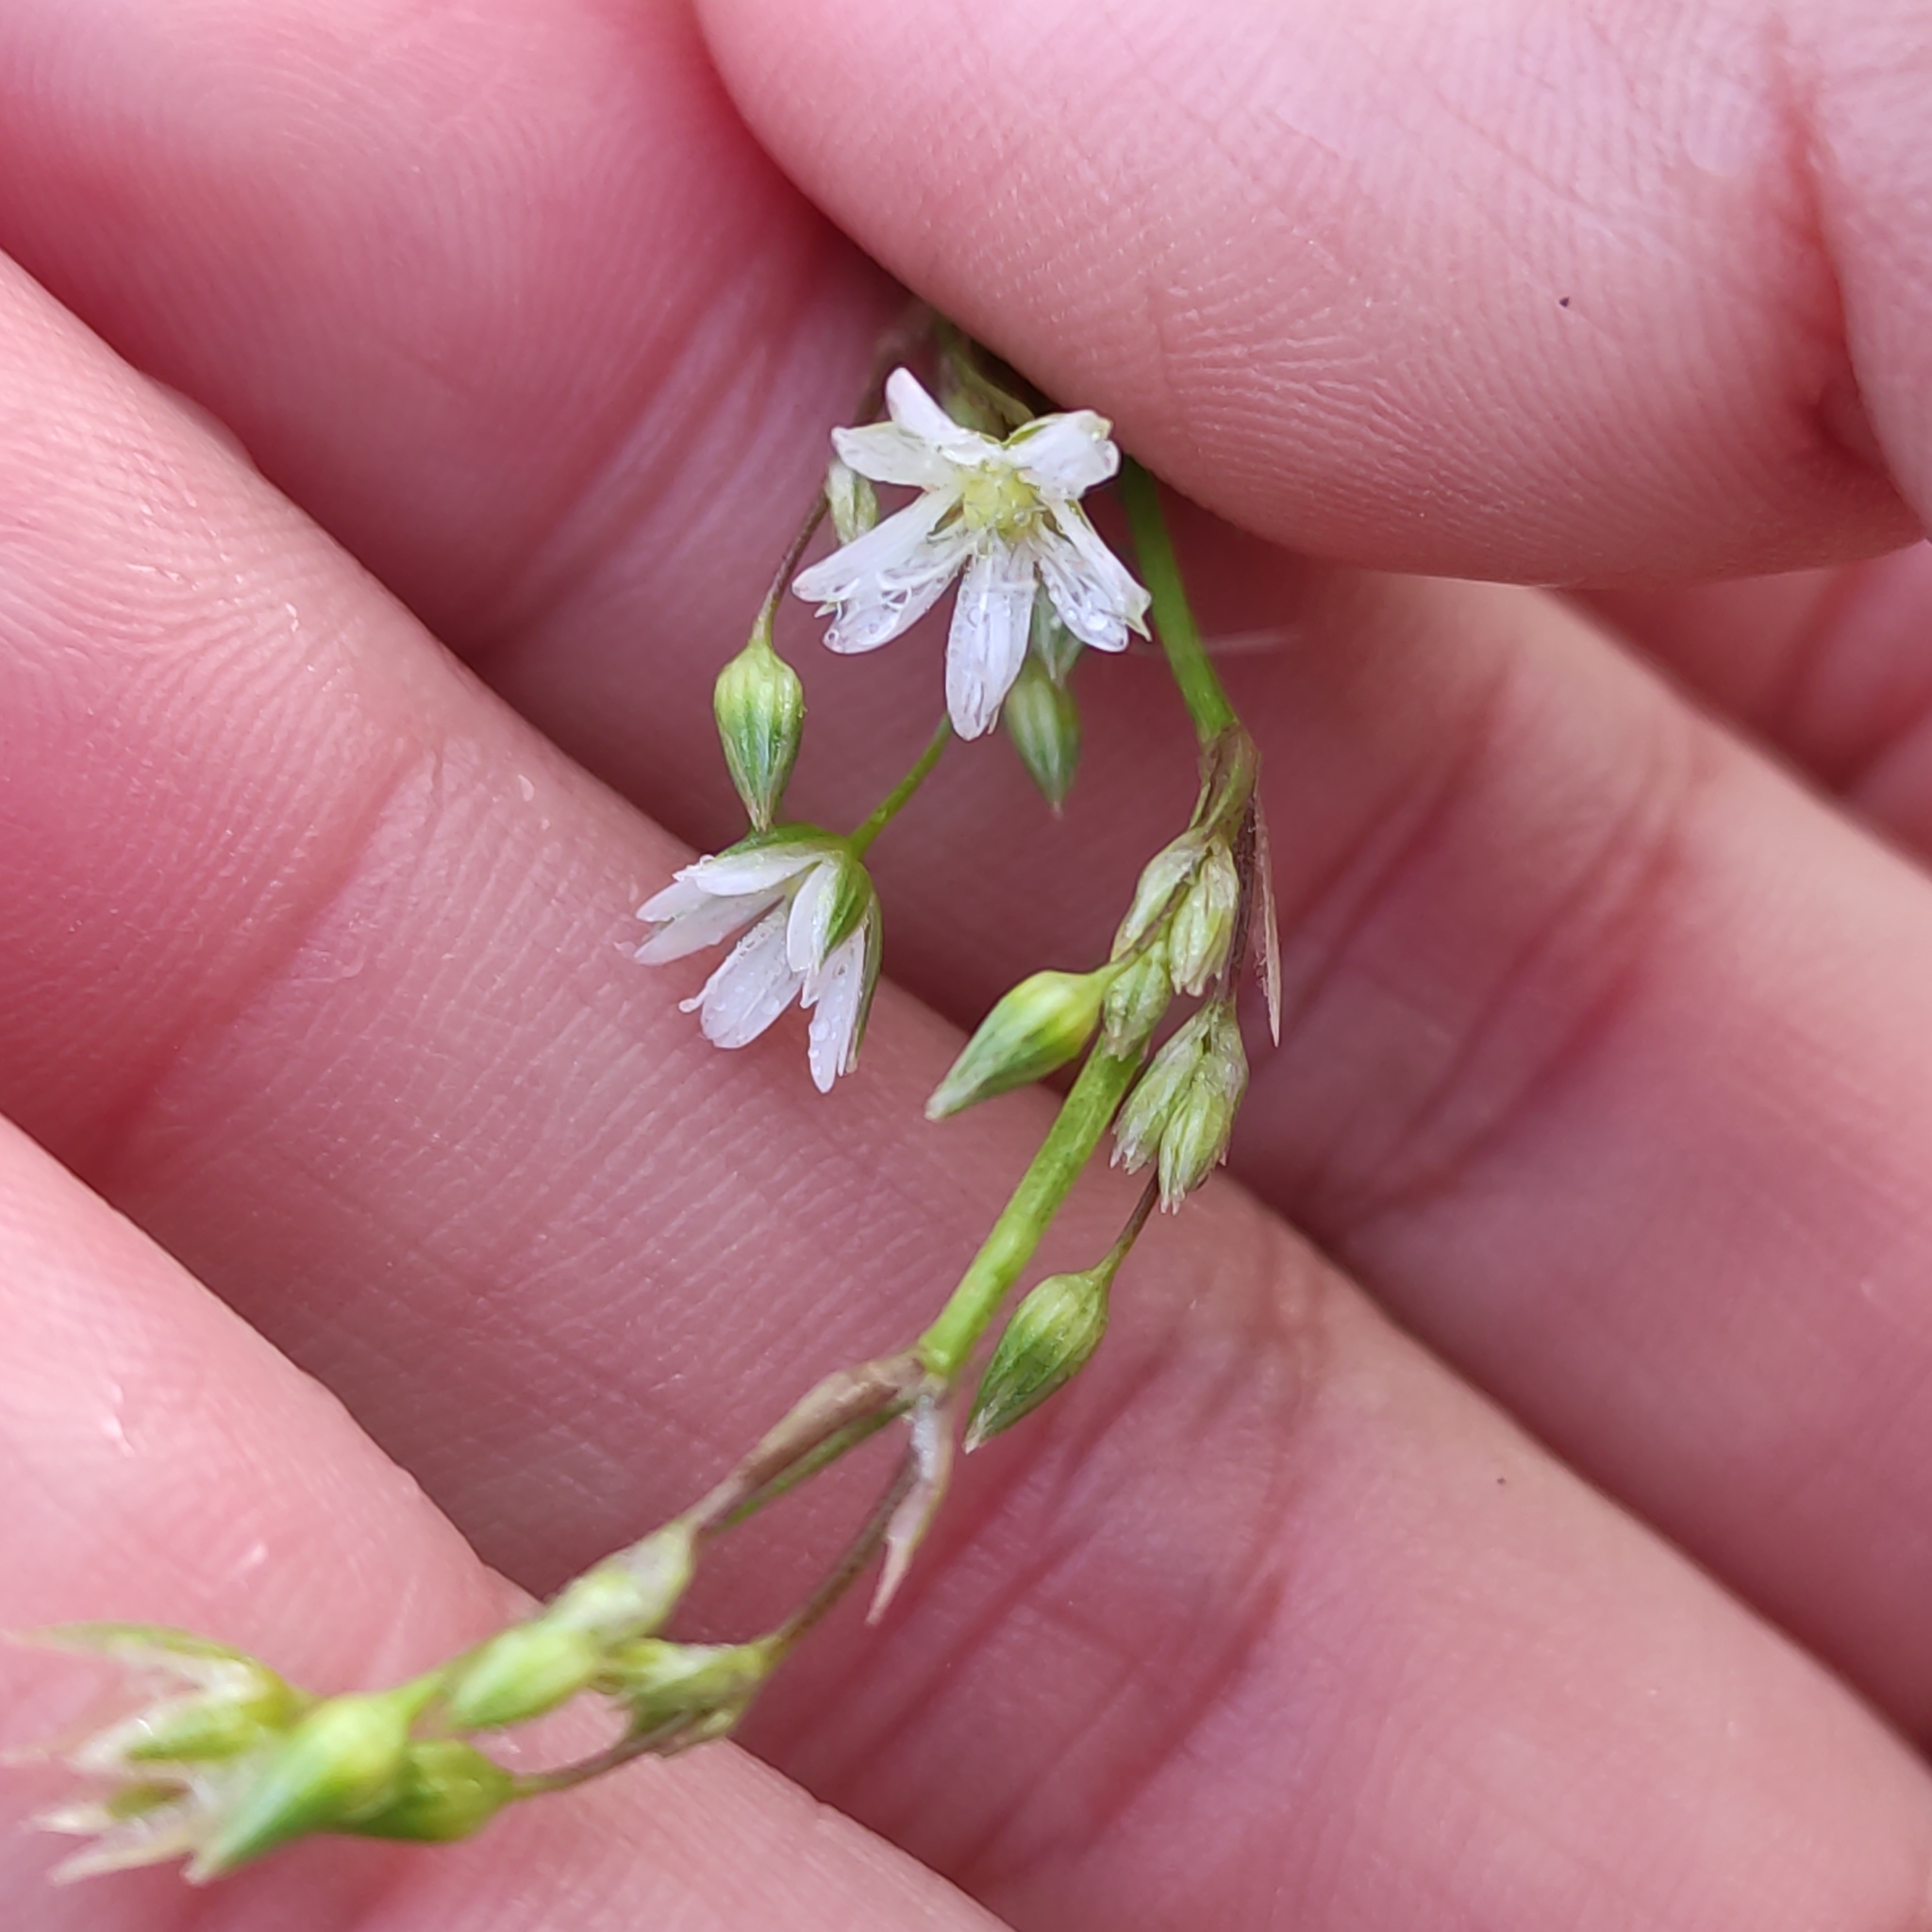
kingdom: Plantae
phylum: Tracheophyta
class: Magnoliopsida
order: Caryophyllales
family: Caryophyllaceae
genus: Stellaria
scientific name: Stellaria graminea
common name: Grass-like starwort
